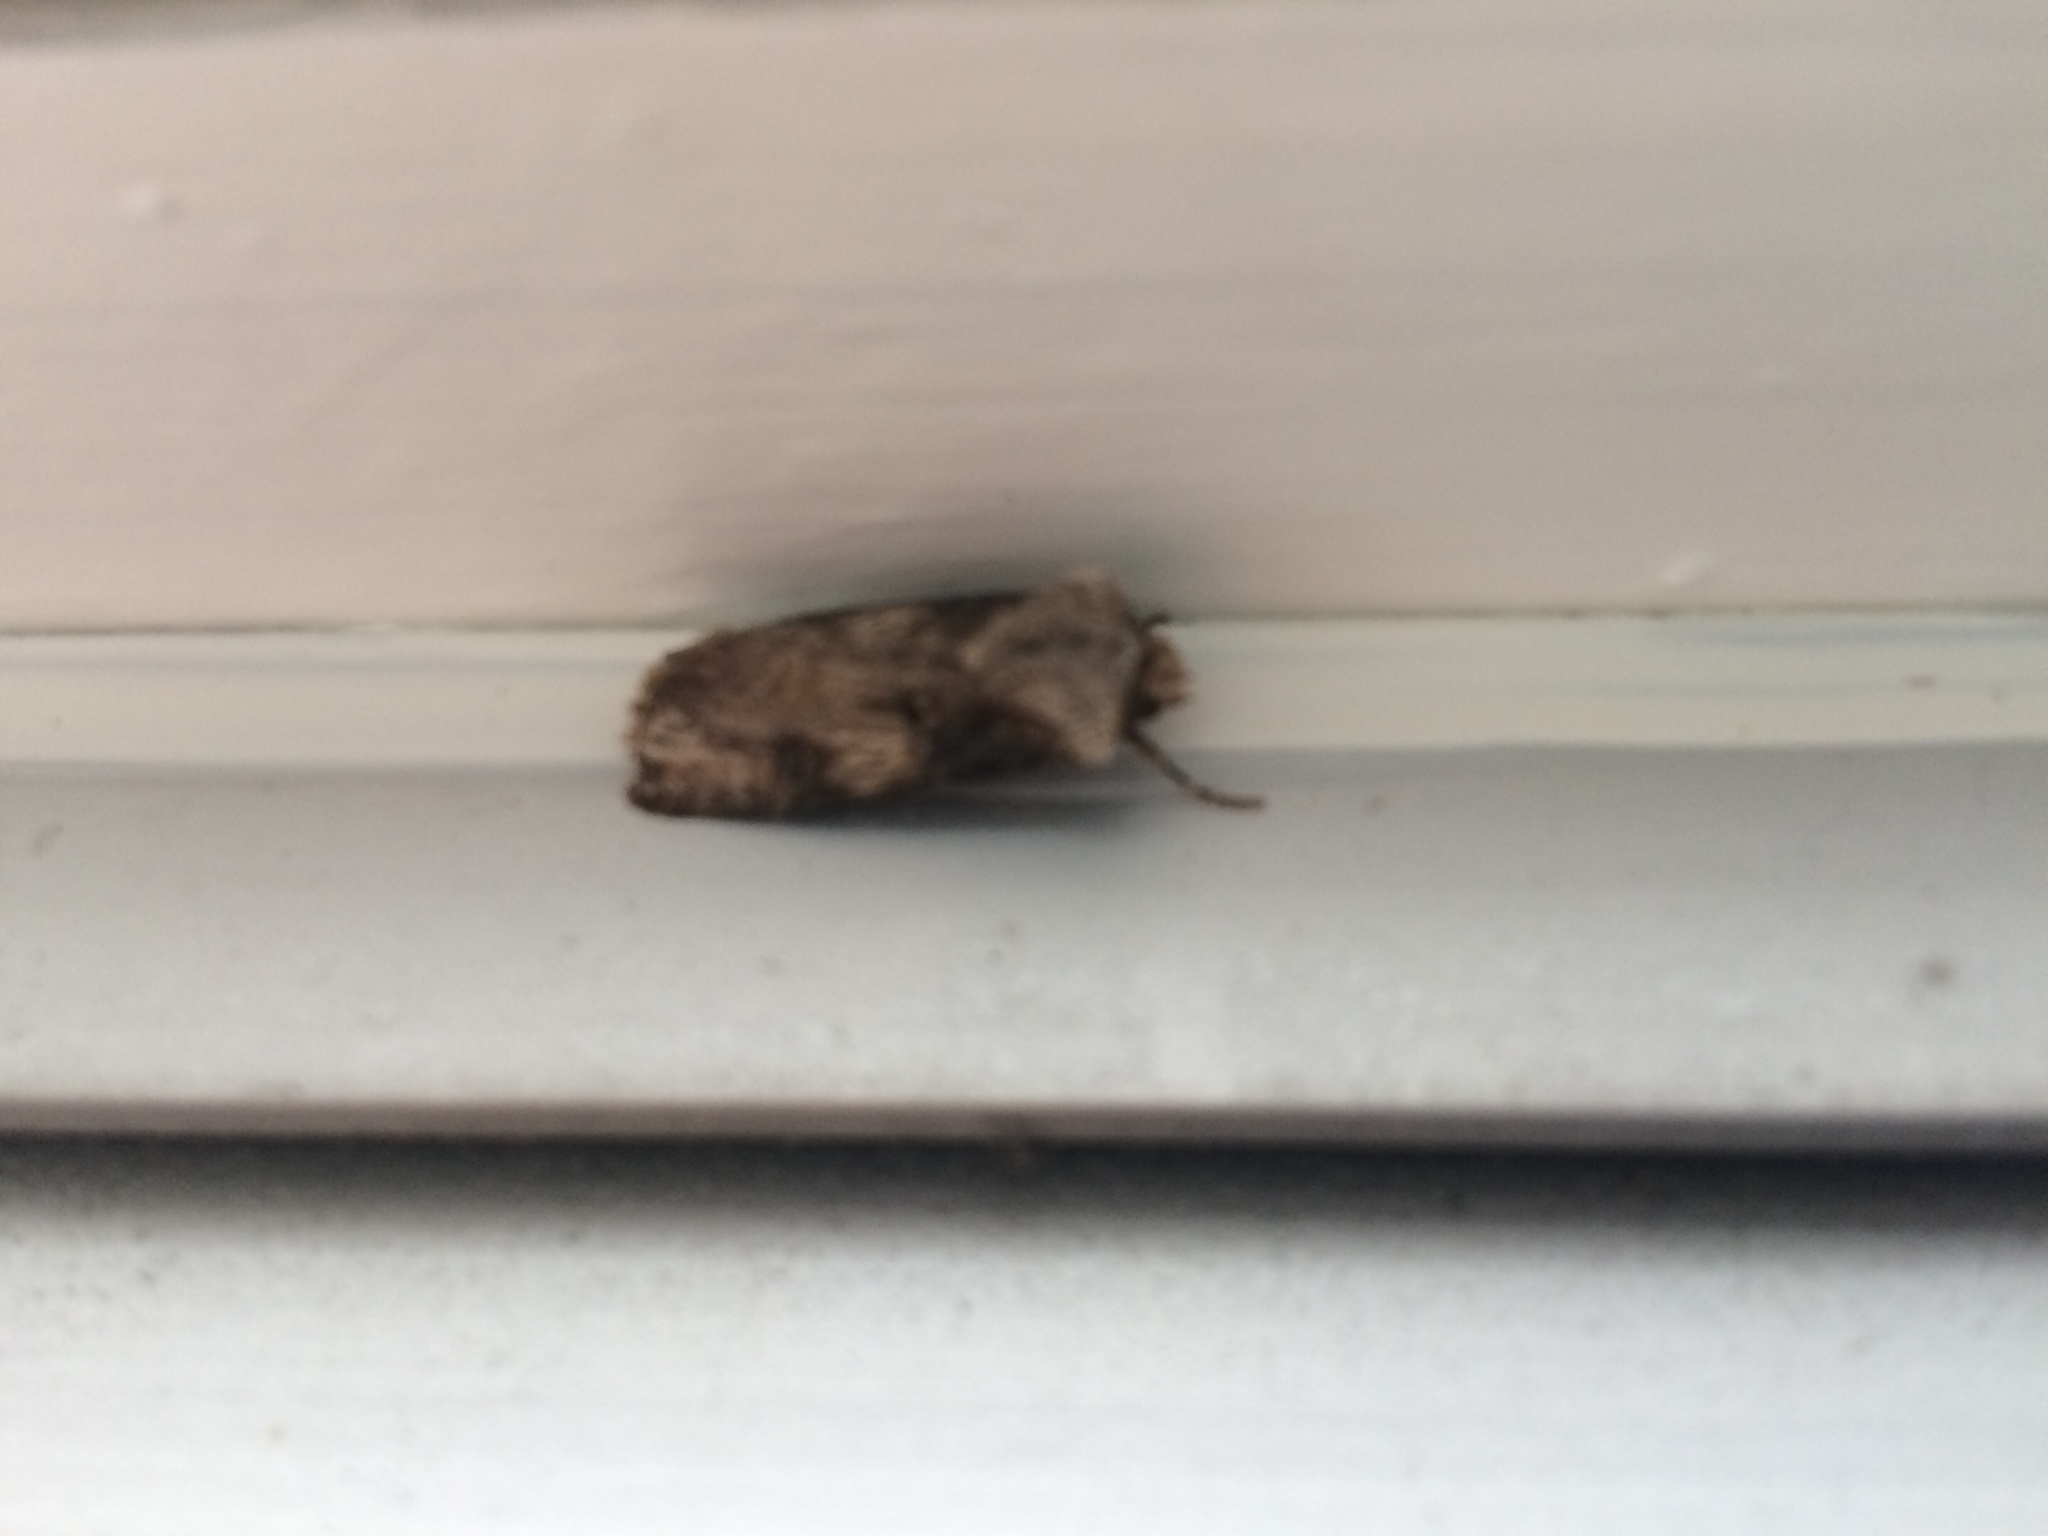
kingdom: Animalia
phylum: Arthropoda
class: Insecta
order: Lepidoptera
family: Noctuidae
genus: Agrotis
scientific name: Agrotis puta
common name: Shuttle-shaped dart
